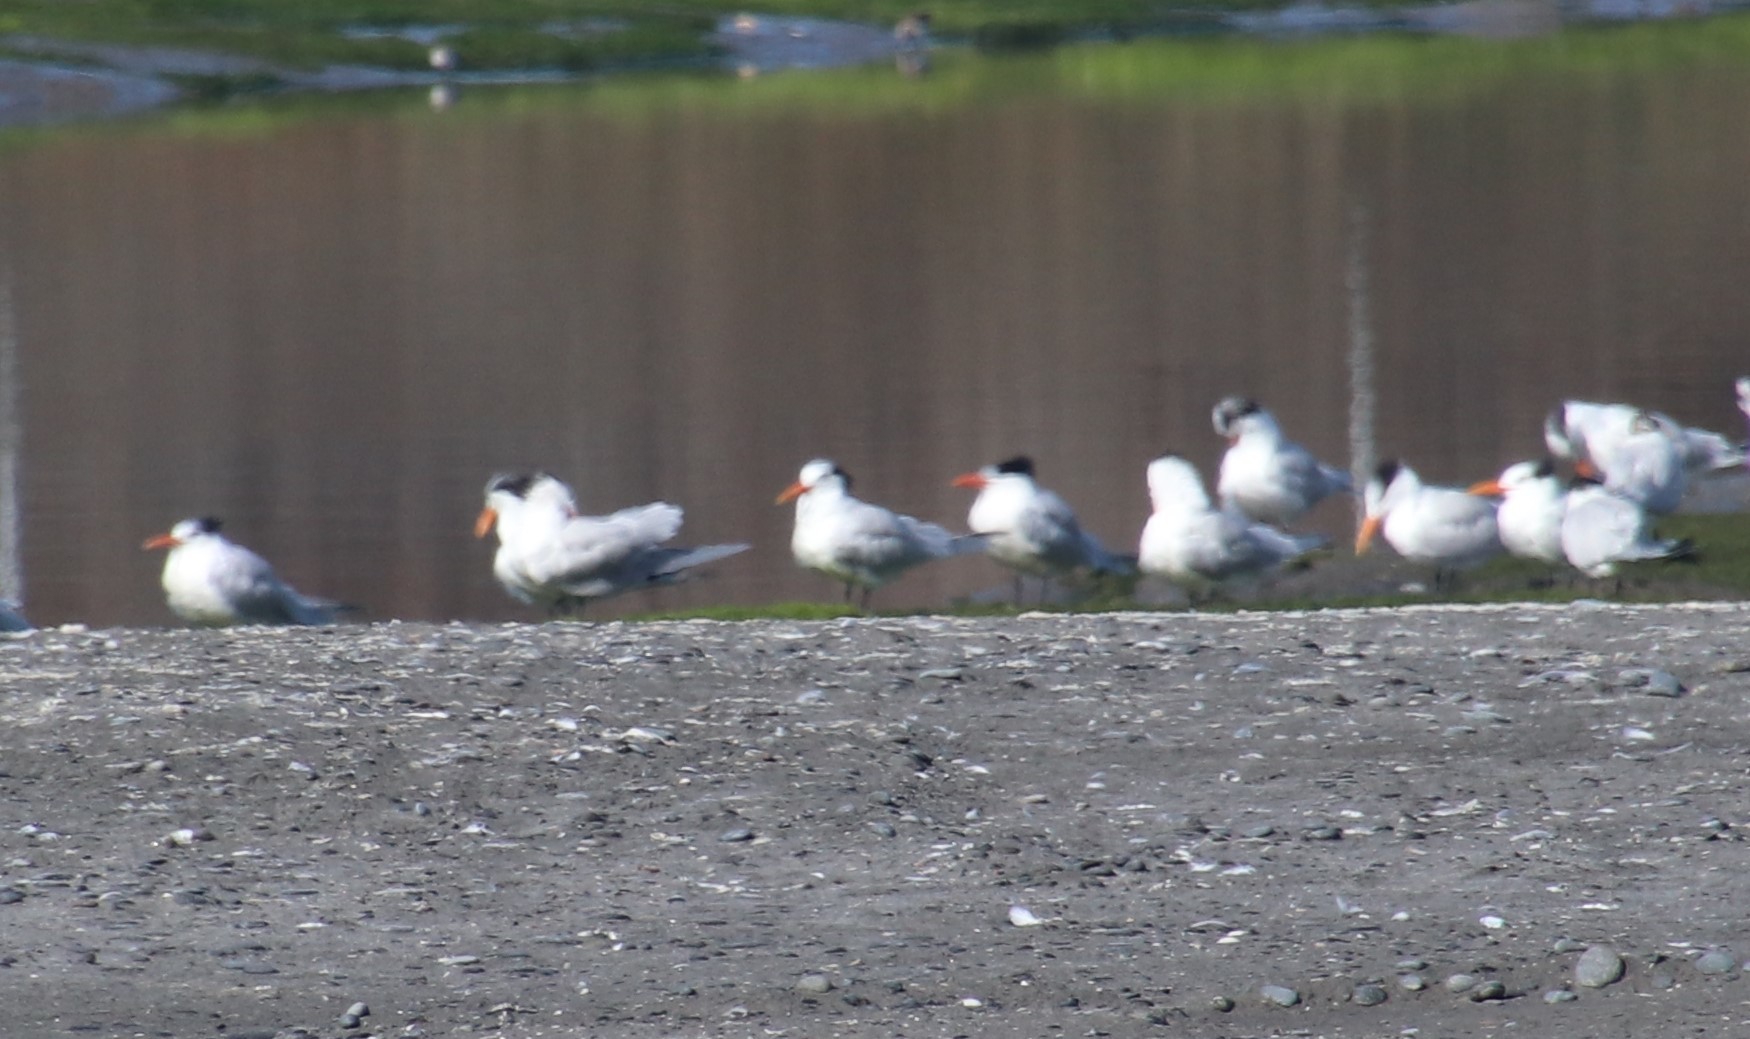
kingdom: Animalia
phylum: Chordata
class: Aves
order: Charadriiformes
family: Laridae
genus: Thalasseus
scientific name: Thalasseus maximus
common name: Royal tern
